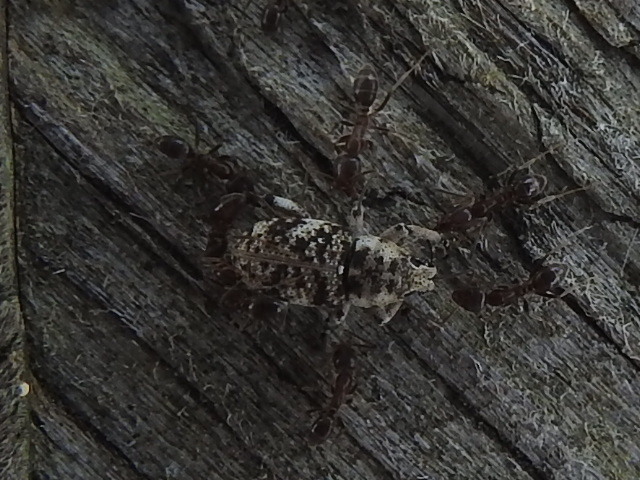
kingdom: Animalia
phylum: Arthropoda
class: Insecta
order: Hymenoptera
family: Formicidae
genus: Linepithema
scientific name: Linepithema humile
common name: Argentine ant
